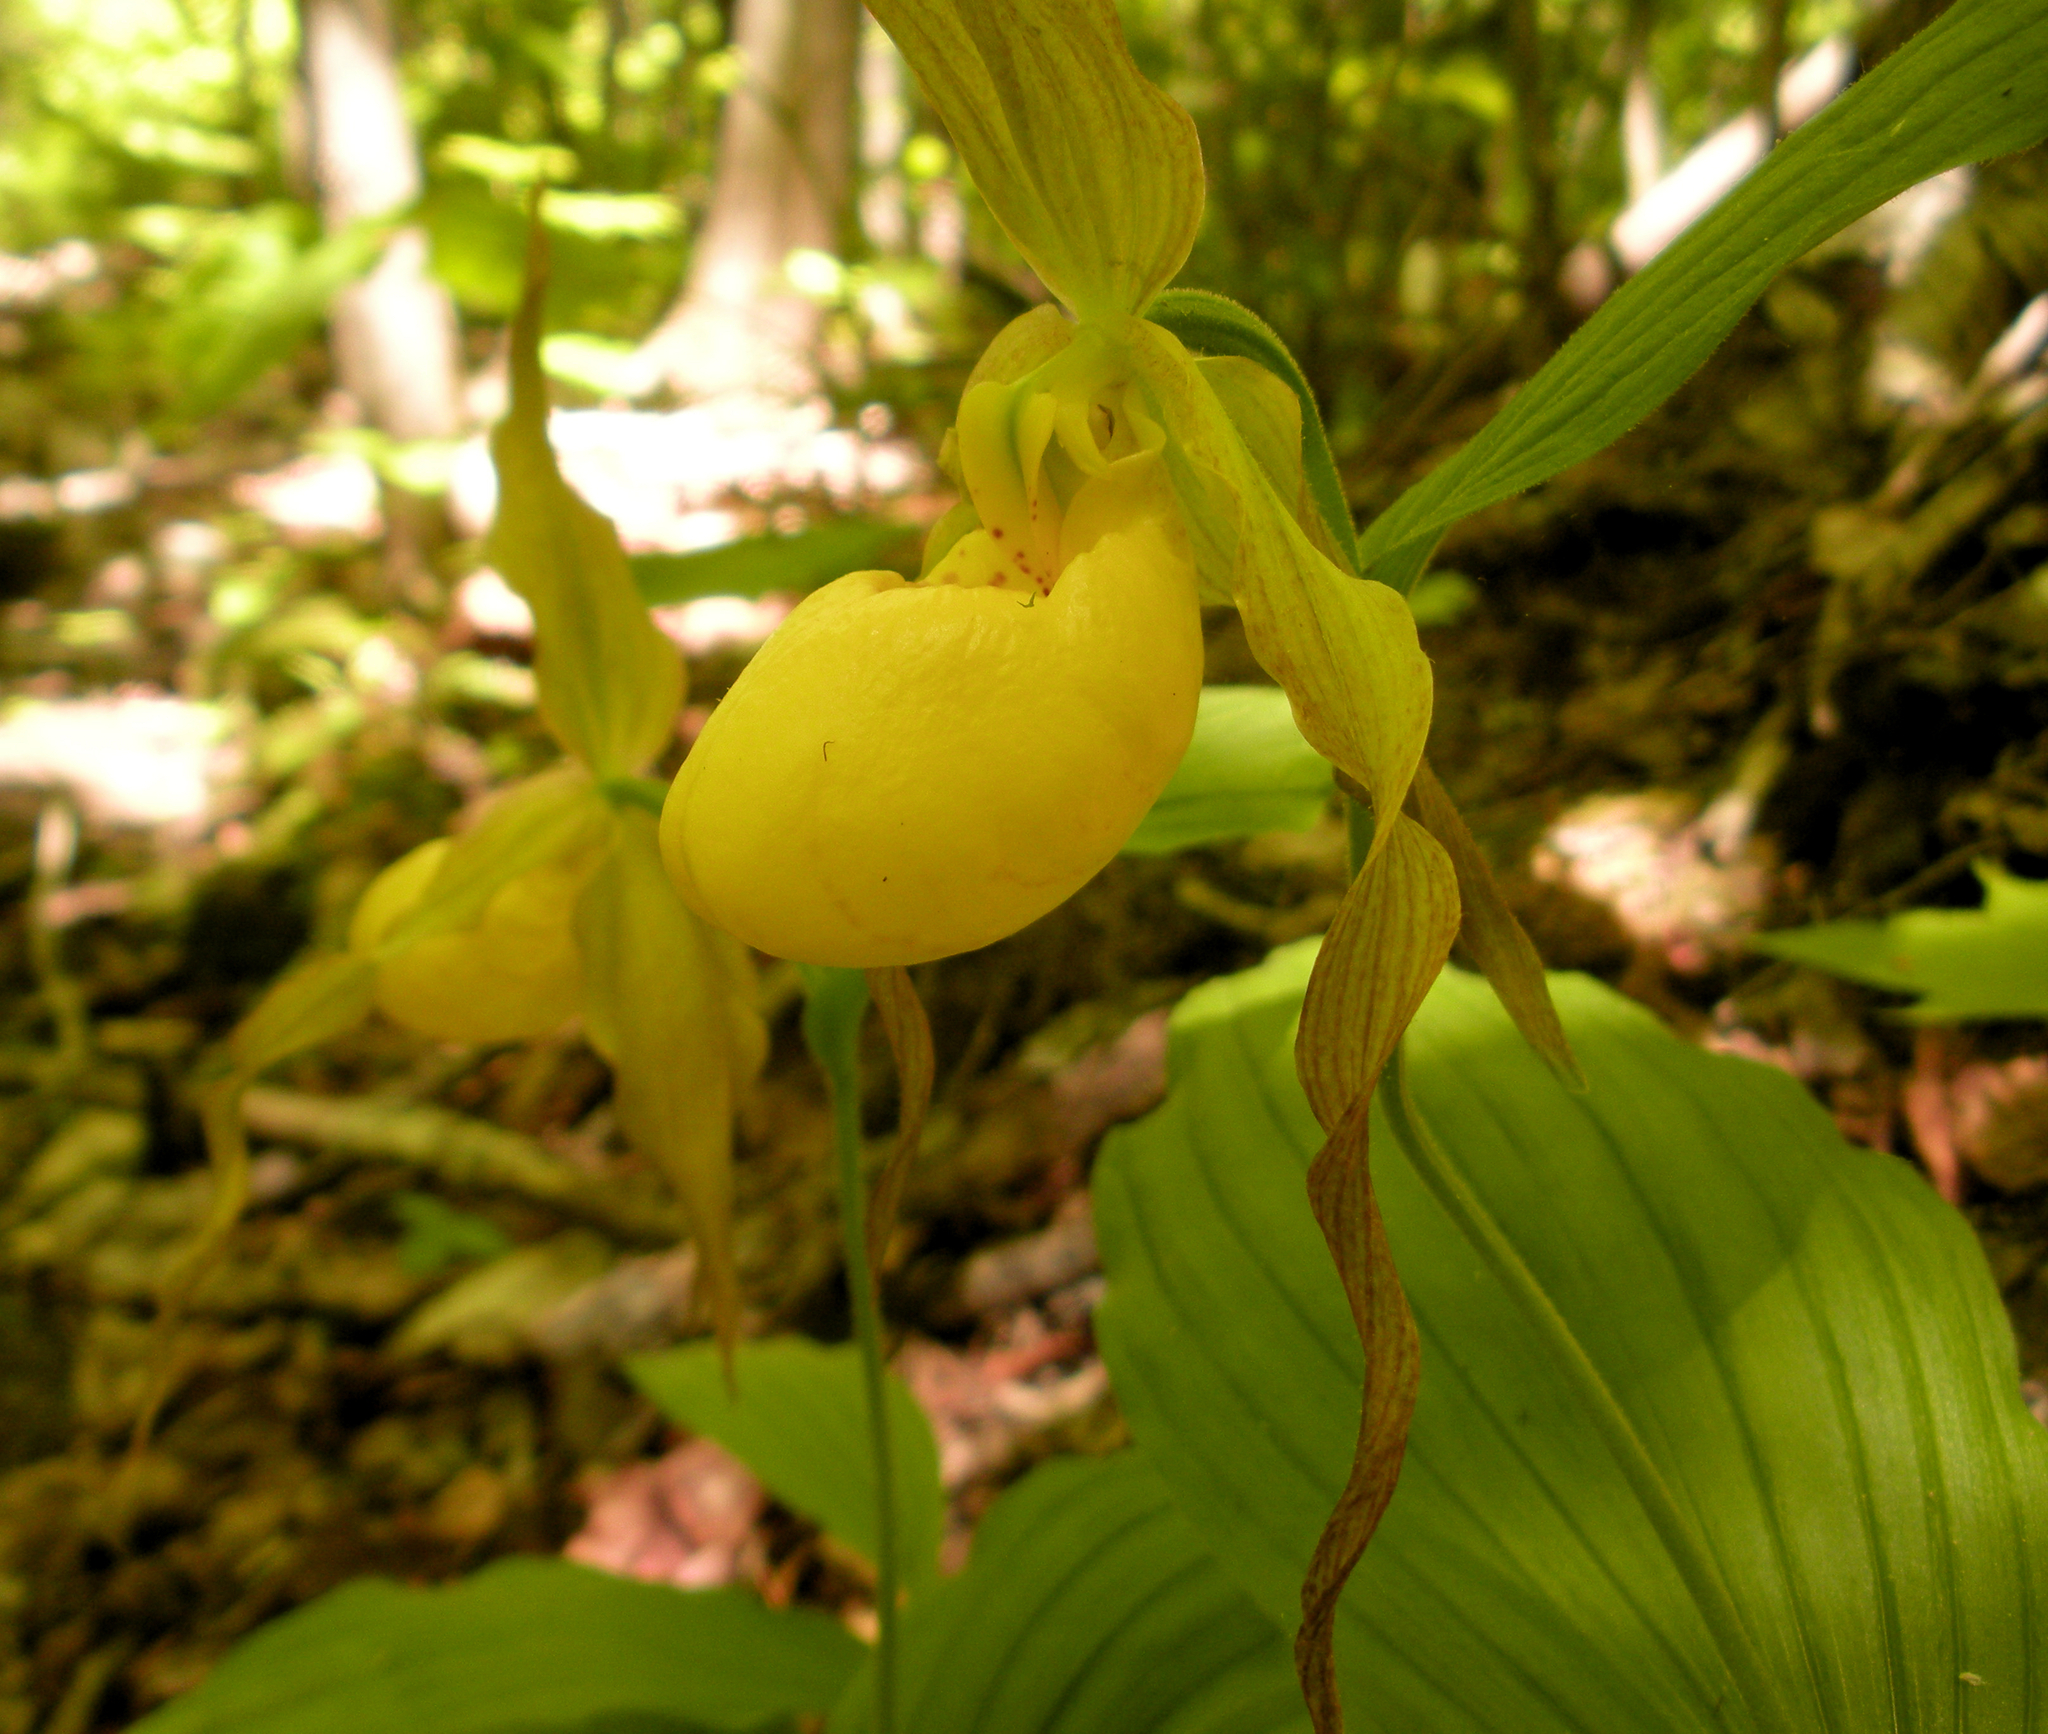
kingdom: Plantae
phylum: Tracheophyta
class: Liliopsida
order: Asparagales
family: Orchidaceae
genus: Cypripedium
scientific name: Cypripedium parviflorum
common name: American yellow lady's-slipper
